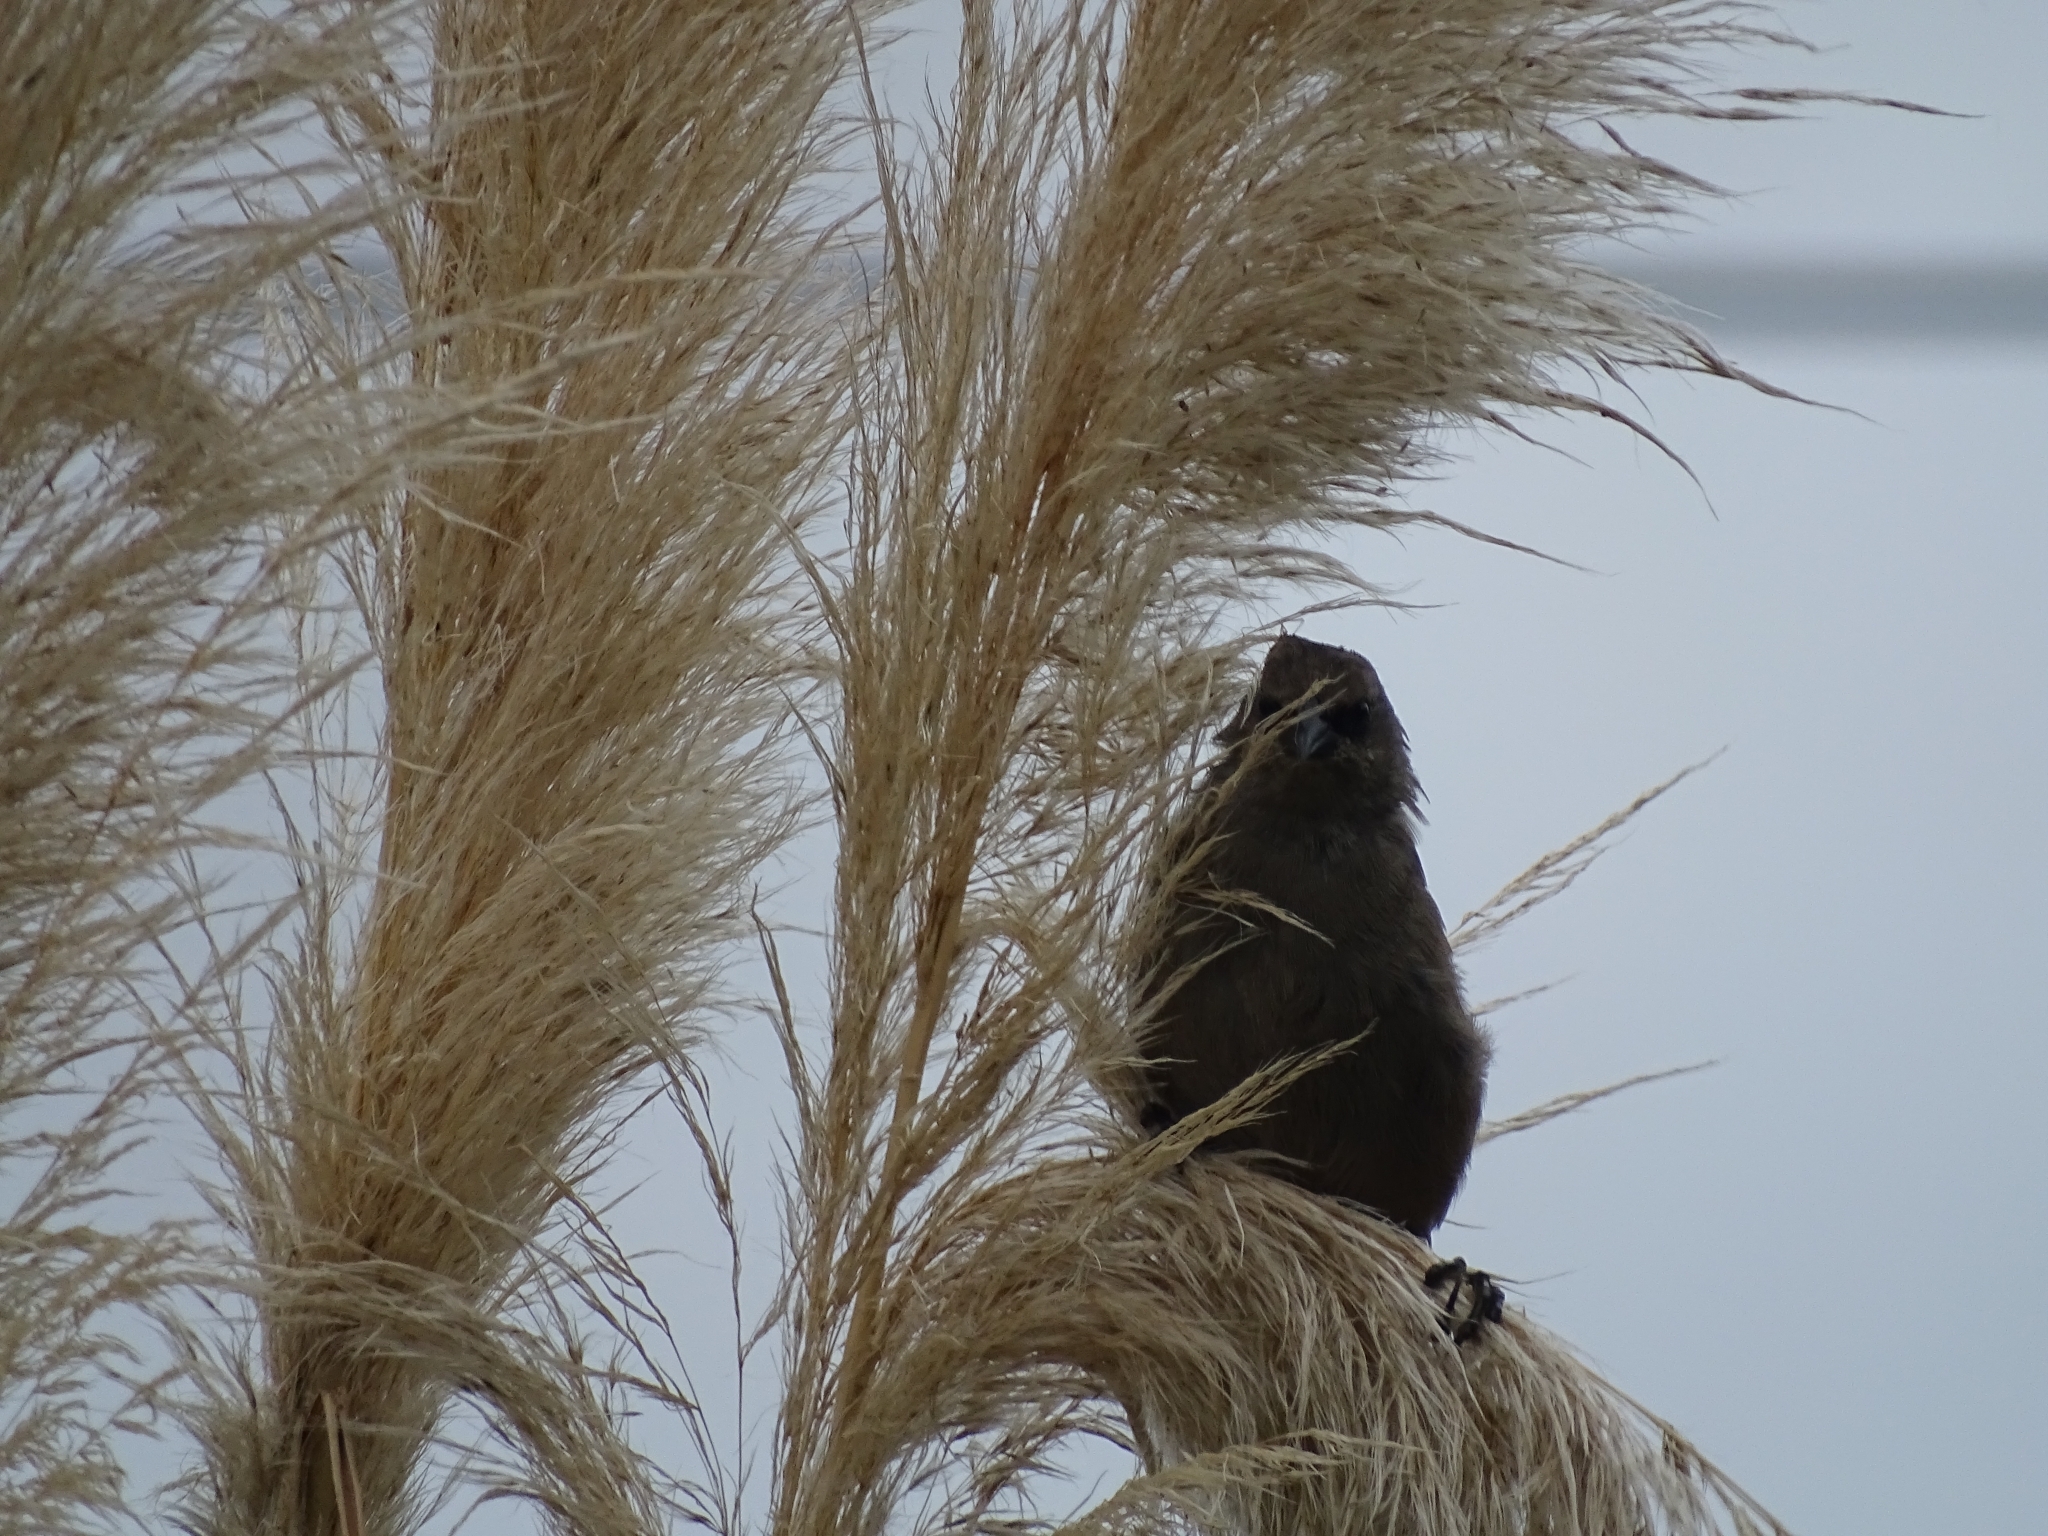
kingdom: Animalia
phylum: Chordata
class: Aves
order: Passeriformes
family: Icteridae
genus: Agelaioides
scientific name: Agelaioides badius
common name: Baywing
